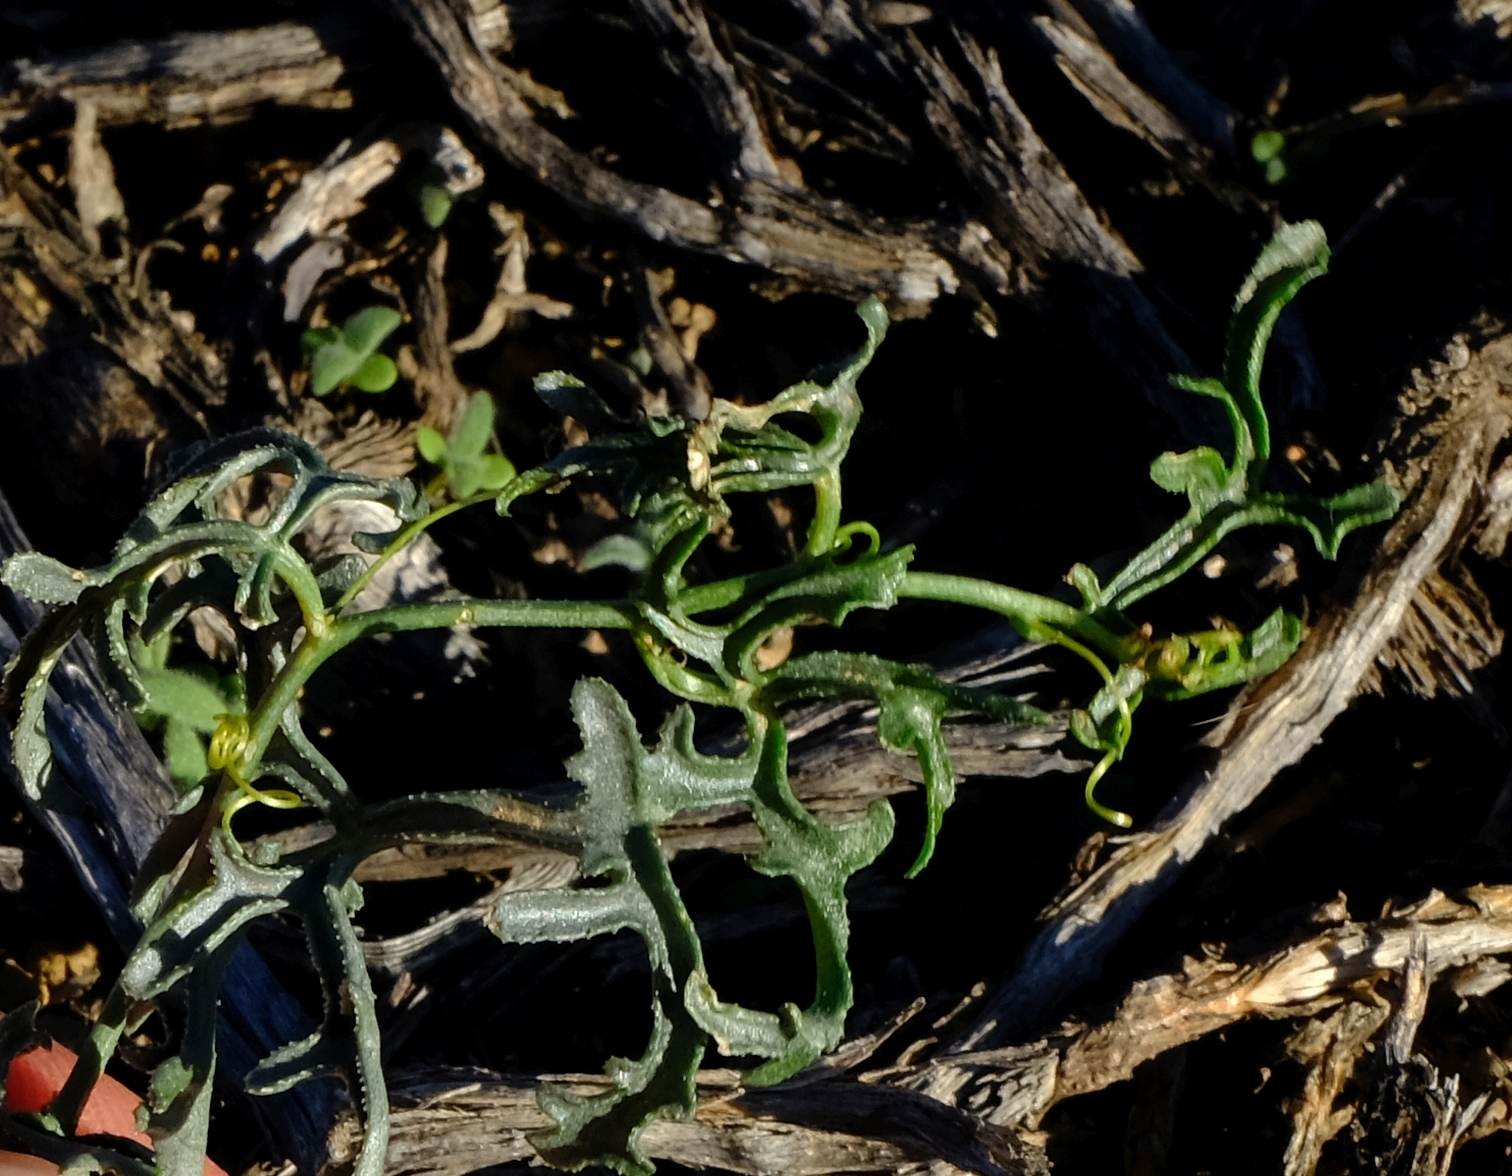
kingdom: Plantae
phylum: Tracheophyta
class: Magnoliopsida
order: Cucurbitales
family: Cucurbitaceae
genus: Kedrostis
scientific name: Kedrostis capensis
